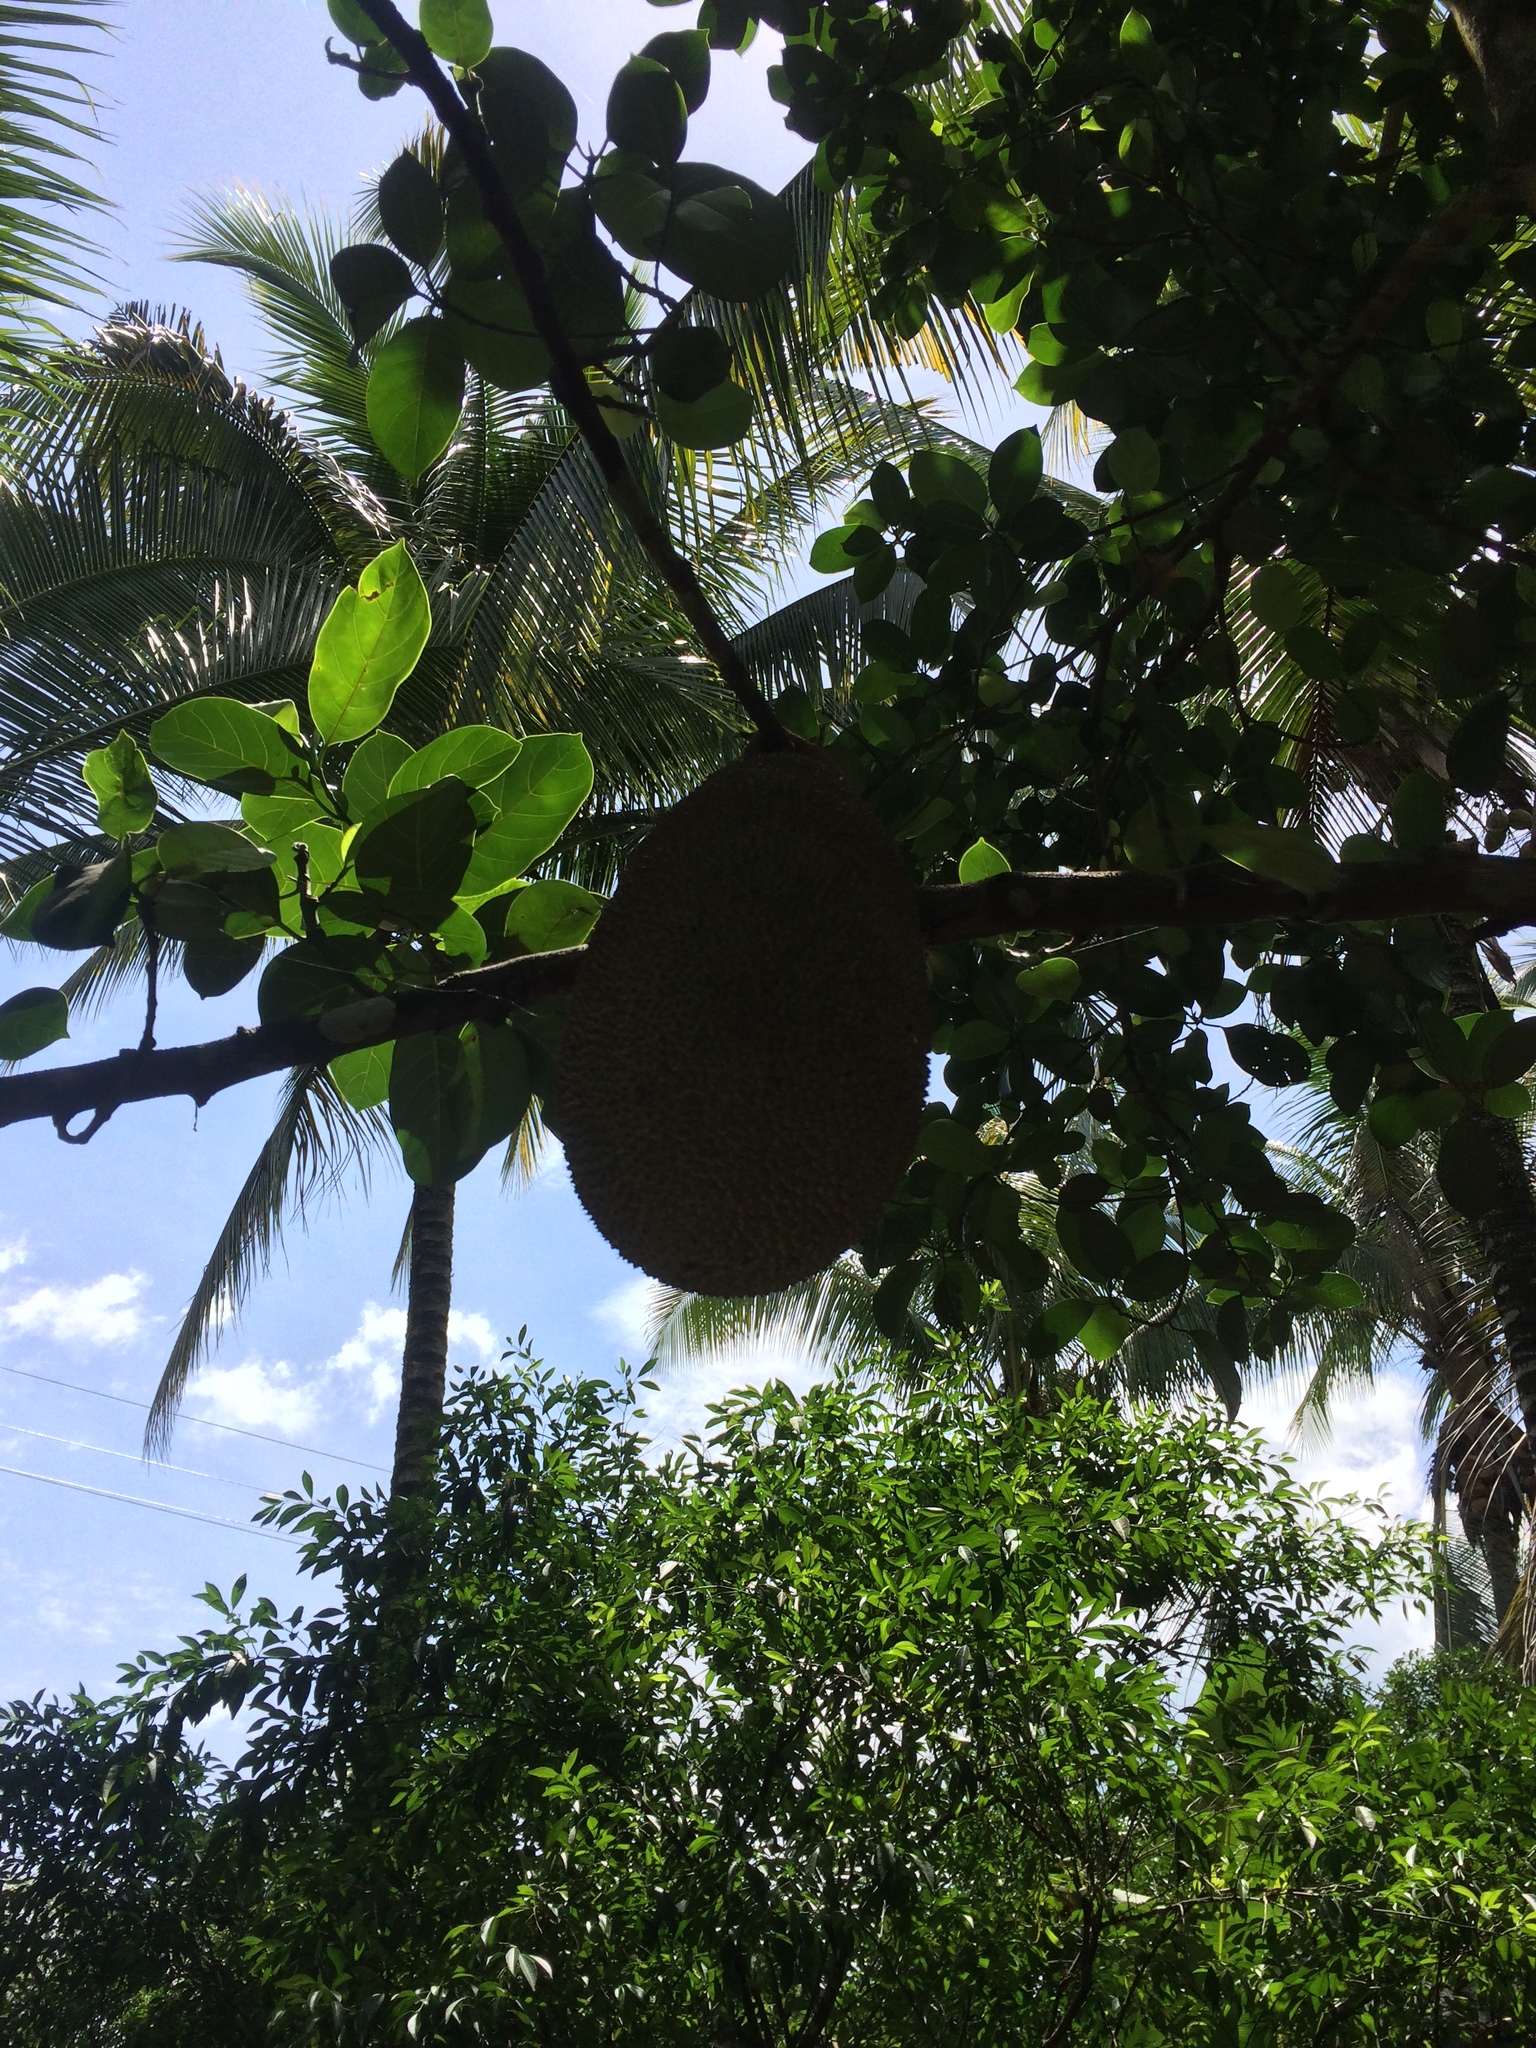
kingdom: Plantae
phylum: Tracheophyta
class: Magnoliopsida
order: Rosales
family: Moraceae
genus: Artocarpus
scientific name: Artocarpus heterophyllus
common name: Jackfruit
